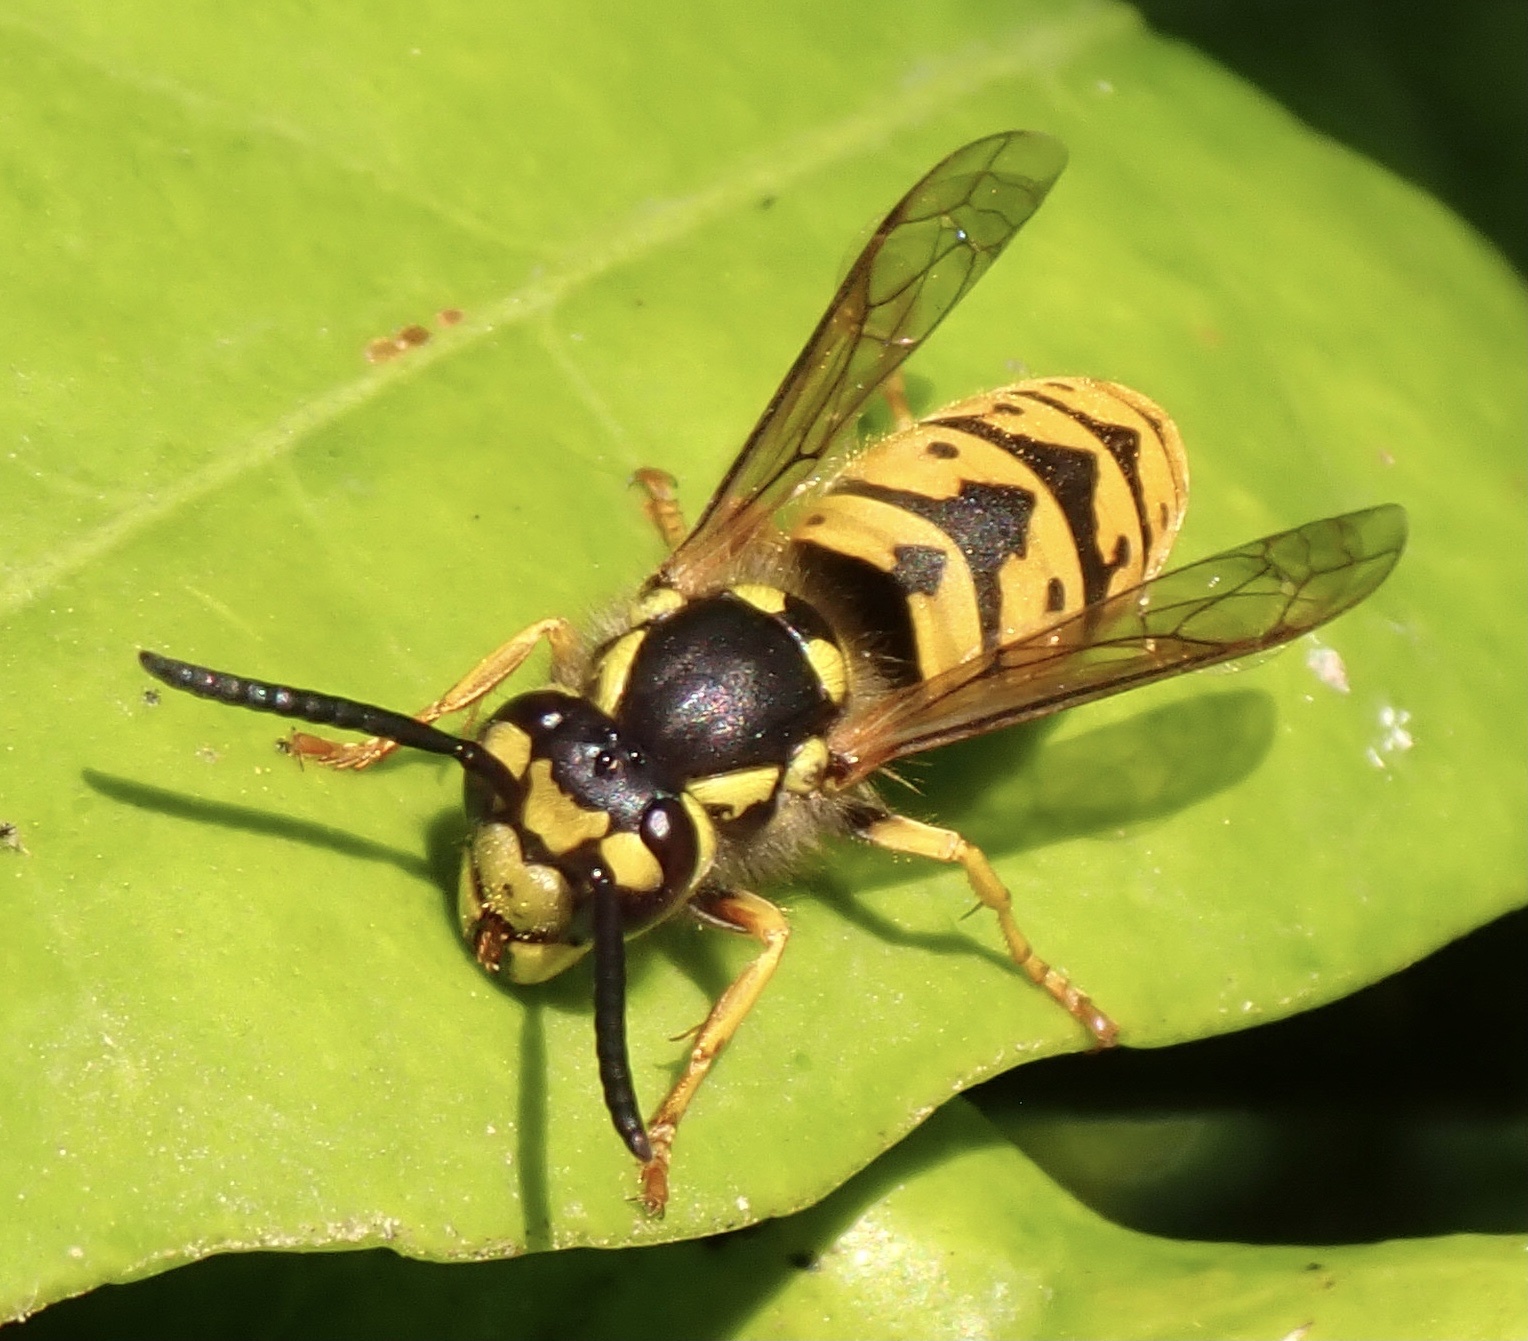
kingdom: Animalia
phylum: Arthropoda
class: Insecta
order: Hymenoptera
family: Vespidae
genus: Vespula
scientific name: Vespula germanica
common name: German wasp
